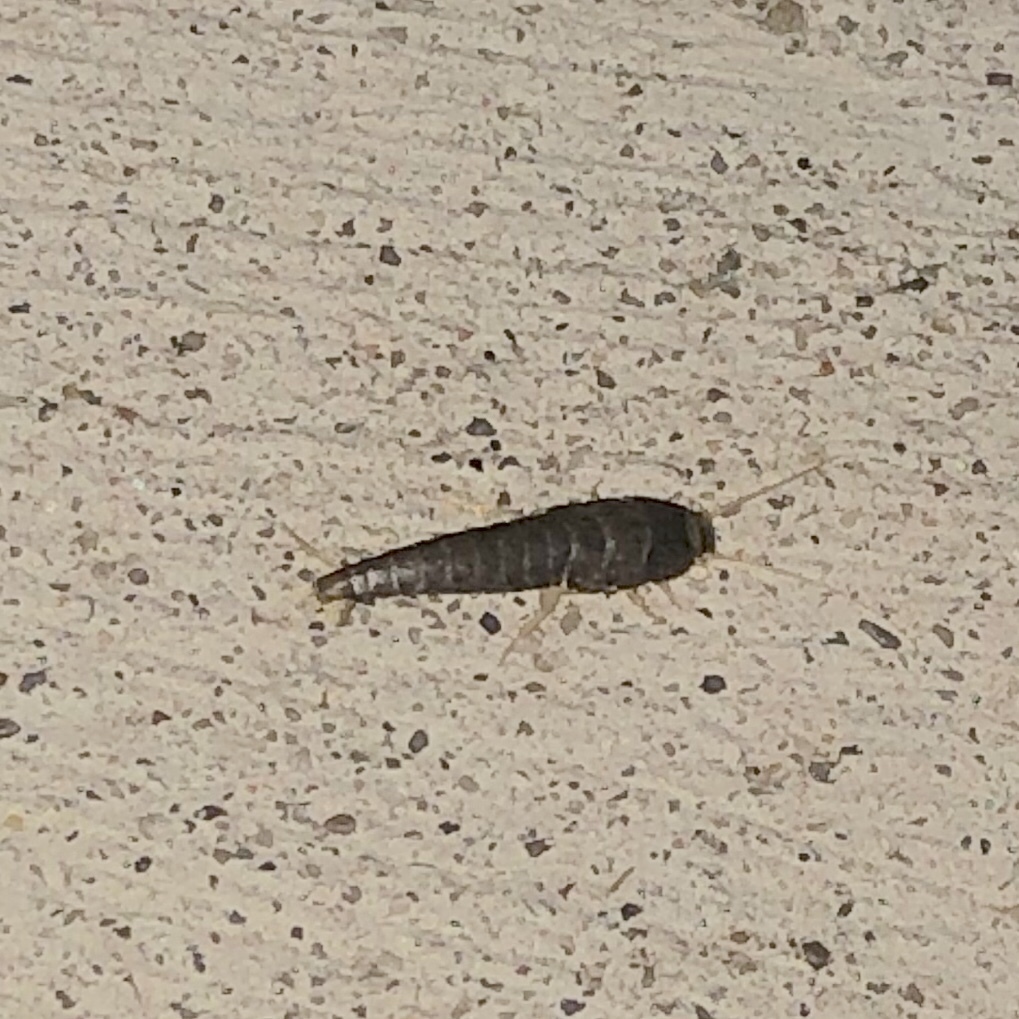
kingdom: Animalia
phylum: Arthropoda
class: Insecta
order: Zygentoma
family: Lepismatidae
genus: Lepisma
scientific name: Lepisma saccharinum
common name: Silverfish
